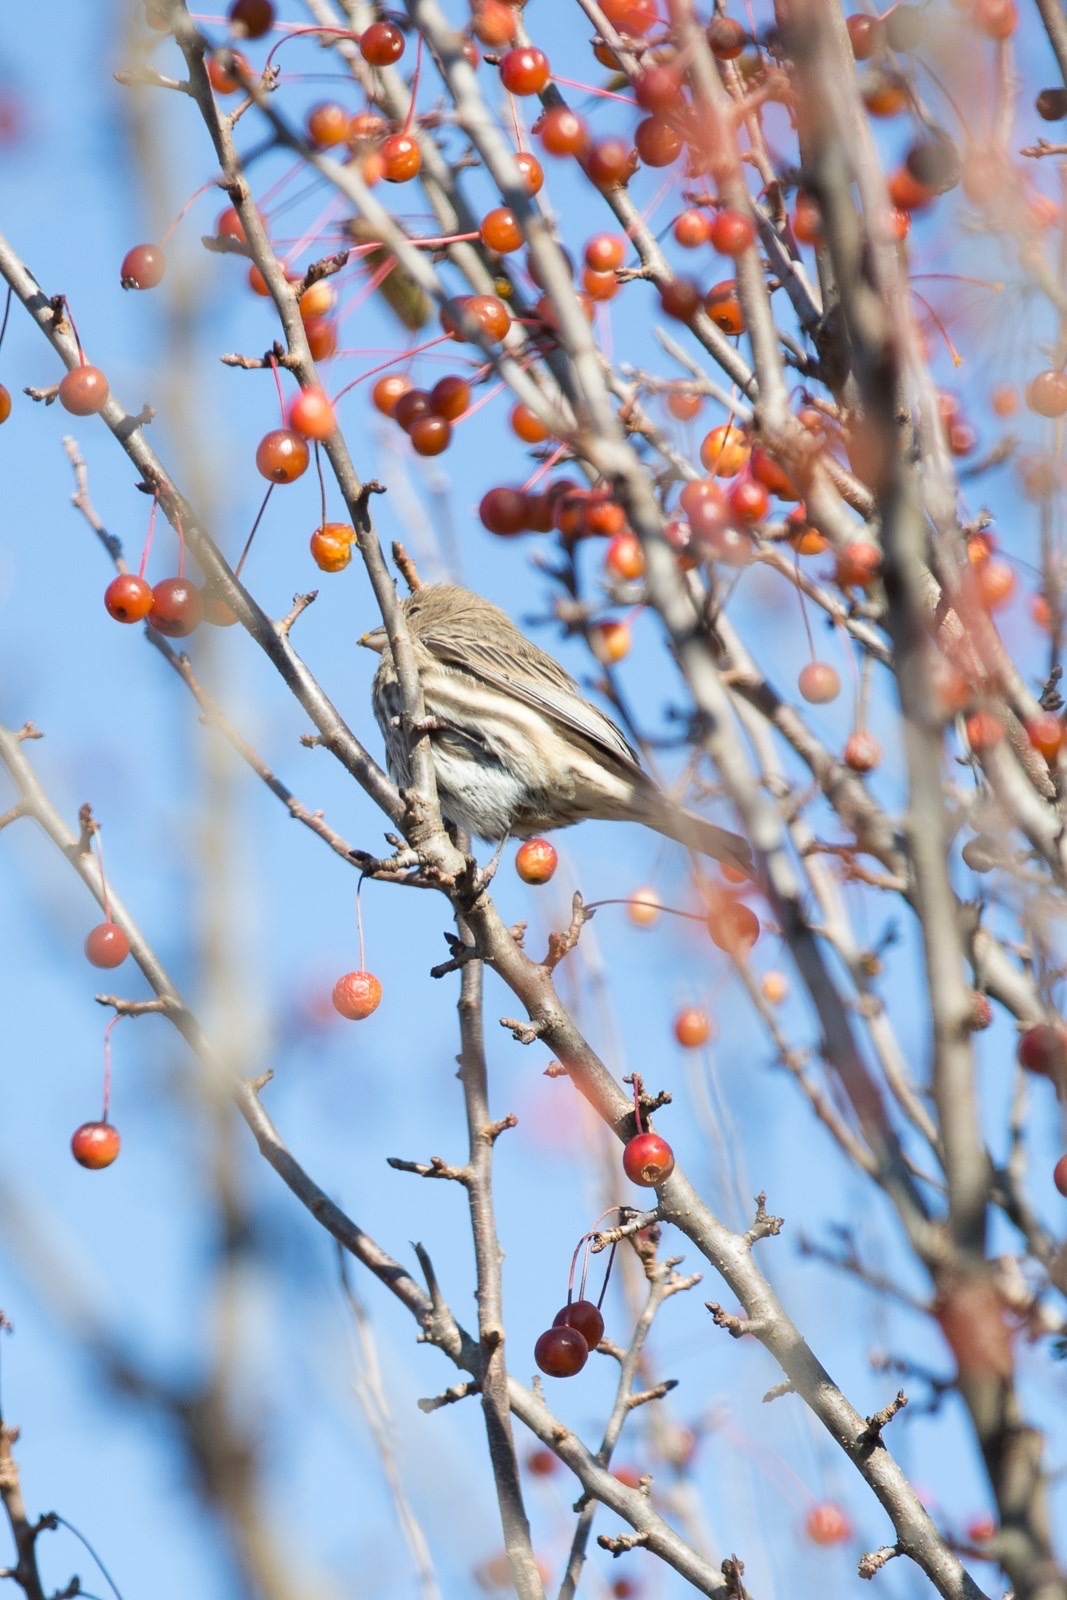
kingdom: Animalia
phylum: Chordata
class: Aves
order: Passeriformes
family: Fringillidae
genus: Haemorhous
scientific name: Haemorhous mexicanus
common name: House finch
